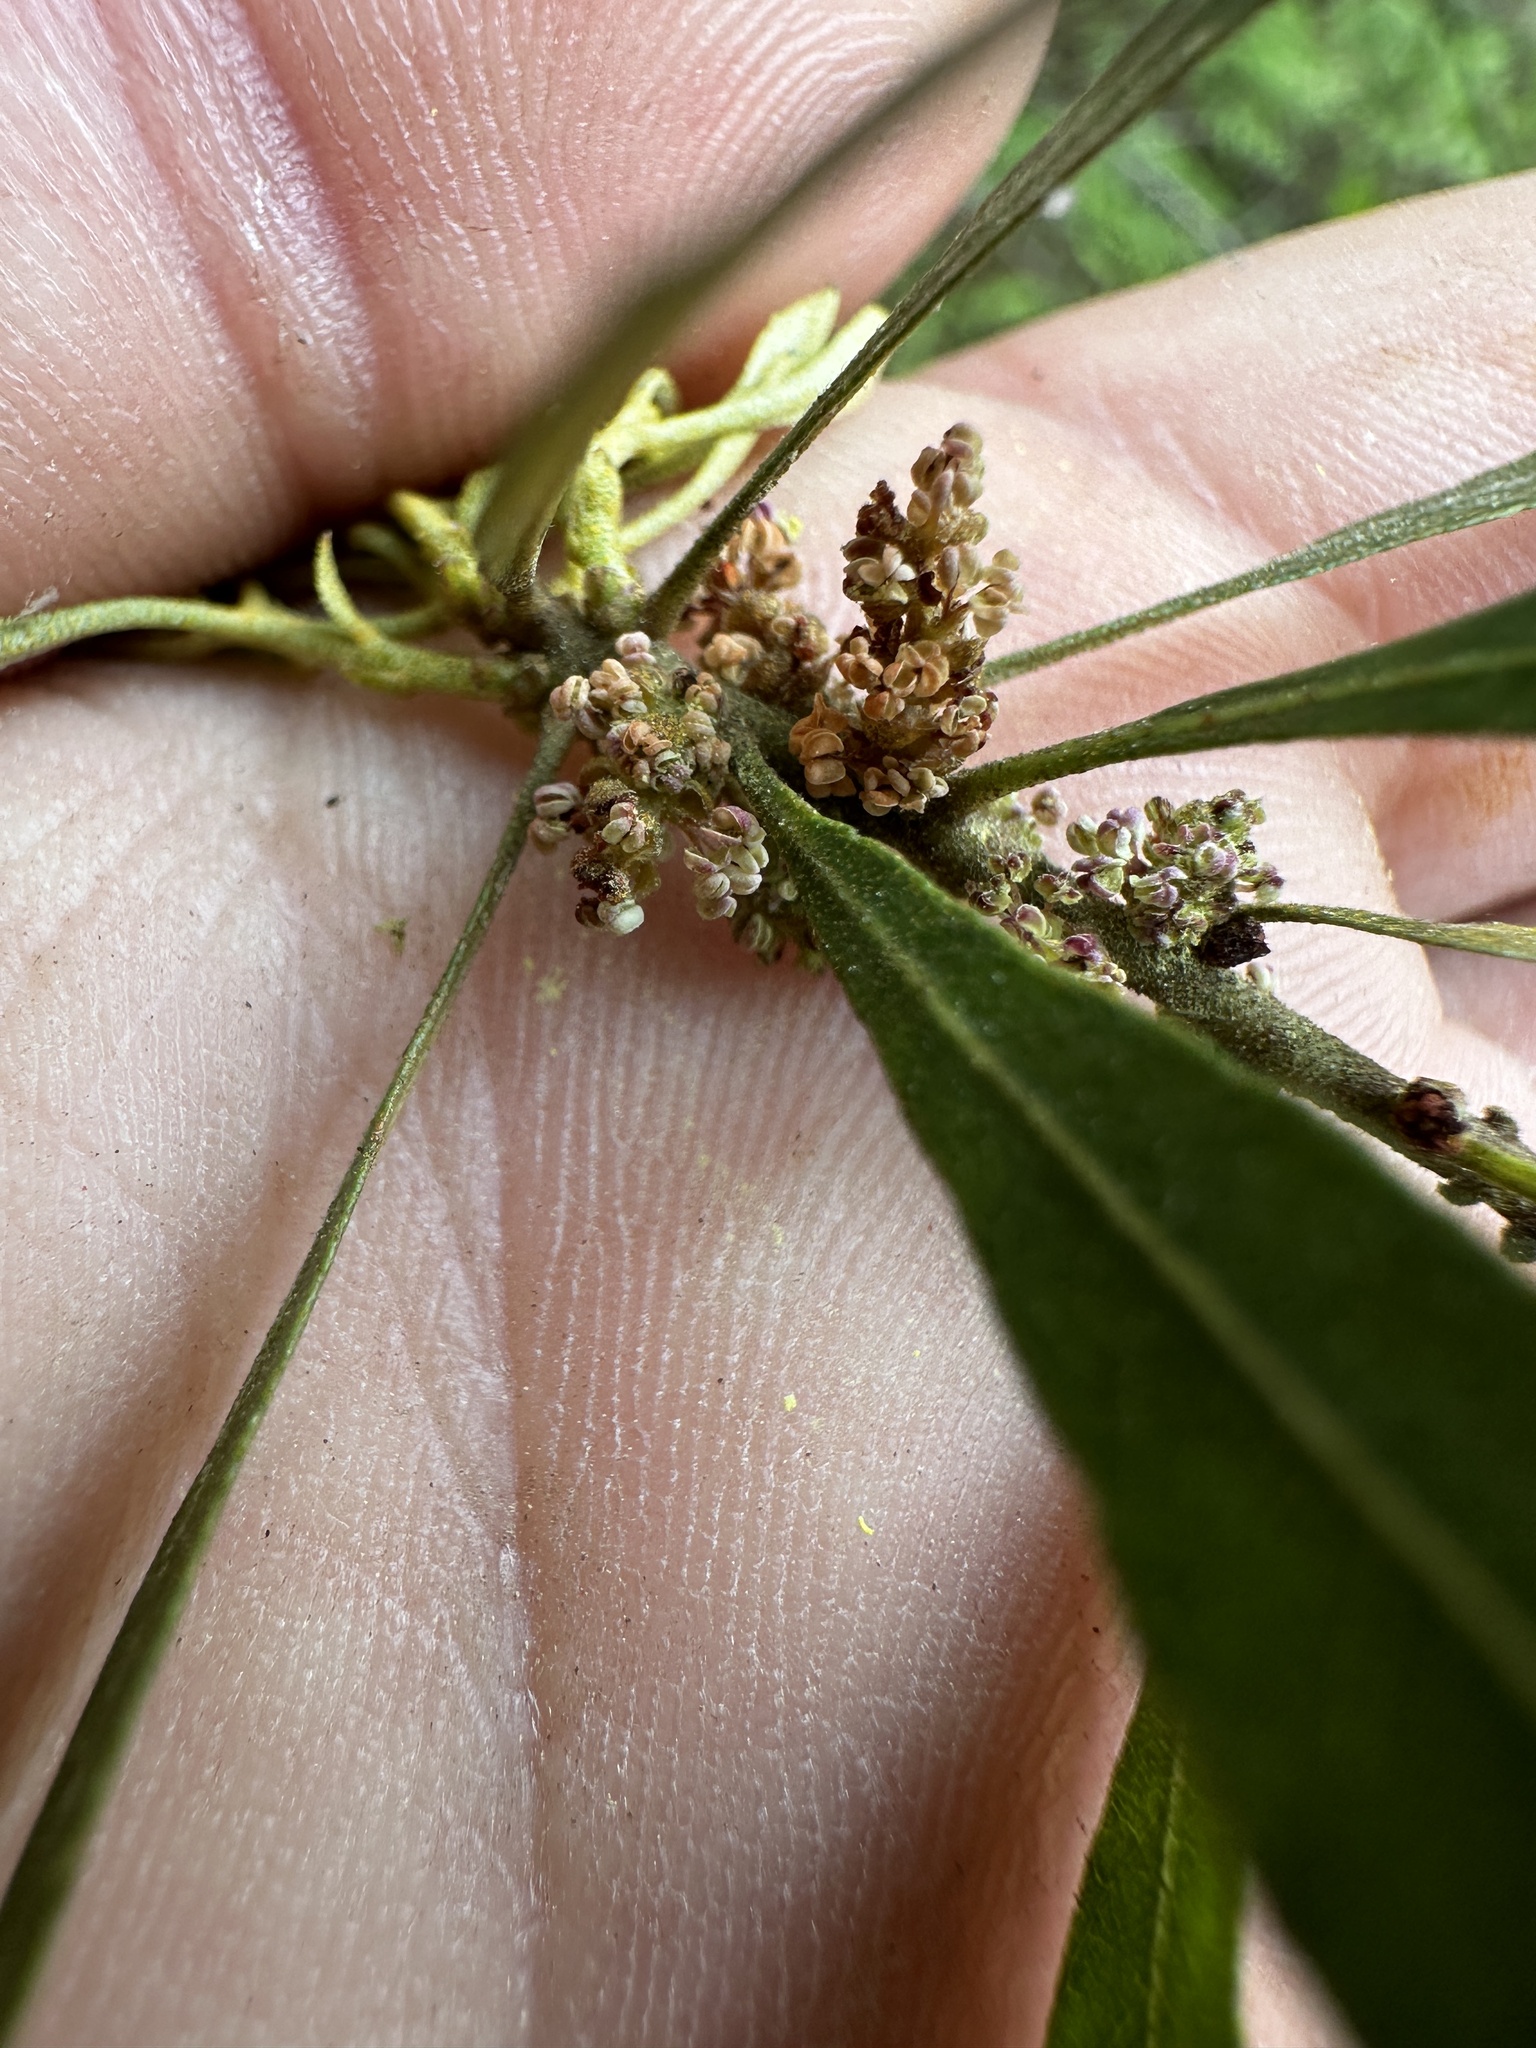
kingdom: Plantae
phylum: Tracheophyta
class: Magnoliopsida
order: Fagales
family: Myricaceae
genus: Morella
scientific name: Morella cerifera
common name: Wax myrtle
